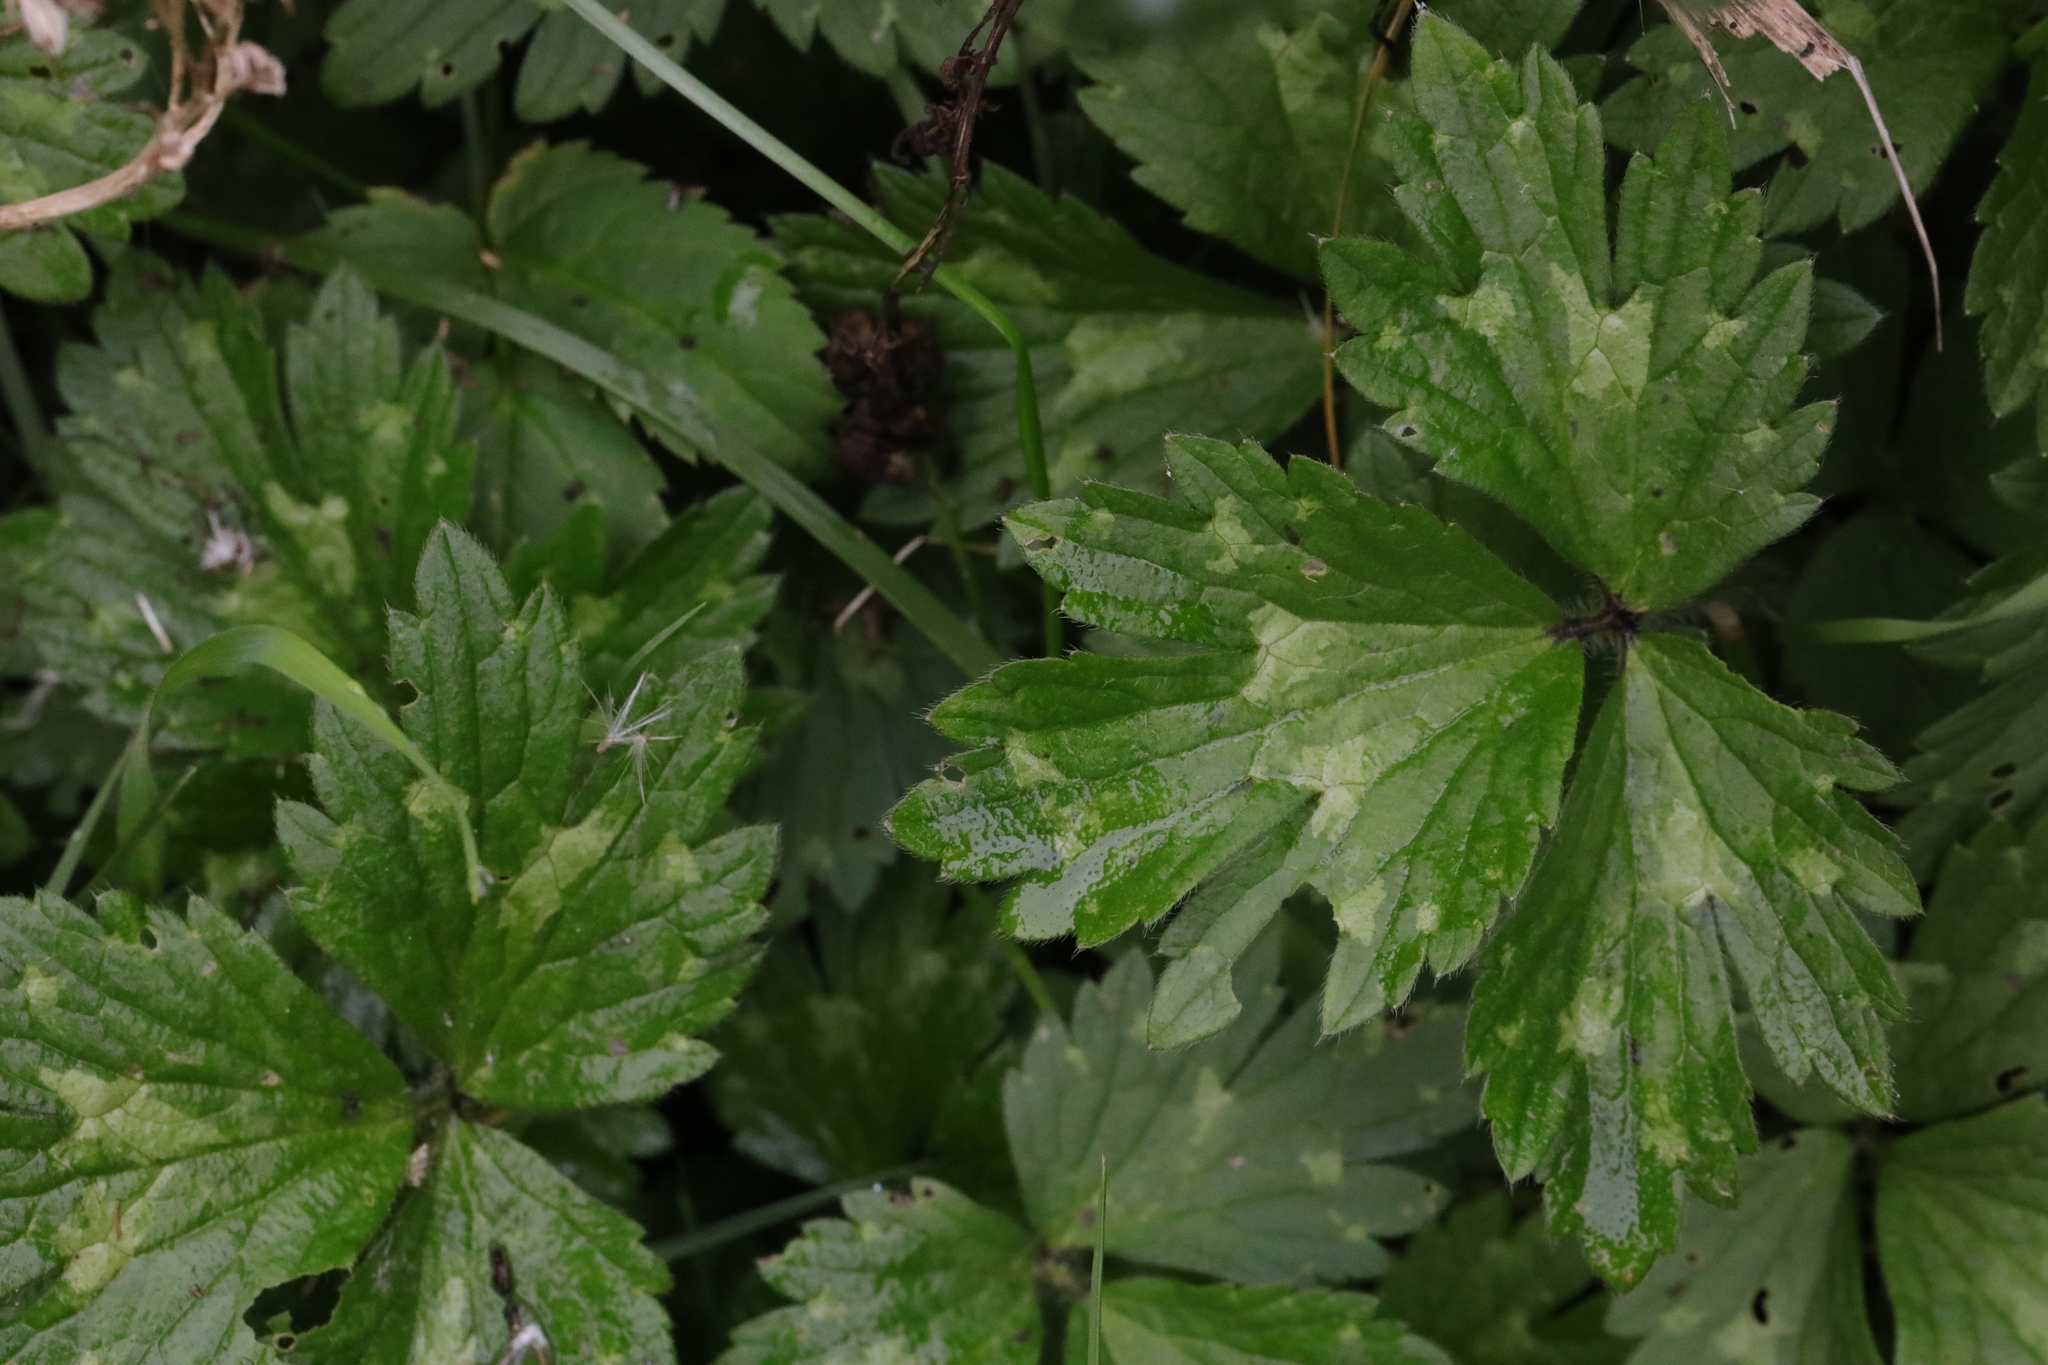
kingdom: Plantae
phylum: Tracheophyta
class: Magnoliopsida
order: Ranunculales
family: Ranunculaceae
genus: Ranunculus
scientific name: Ranunculus repens
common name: Creeping buttercup
